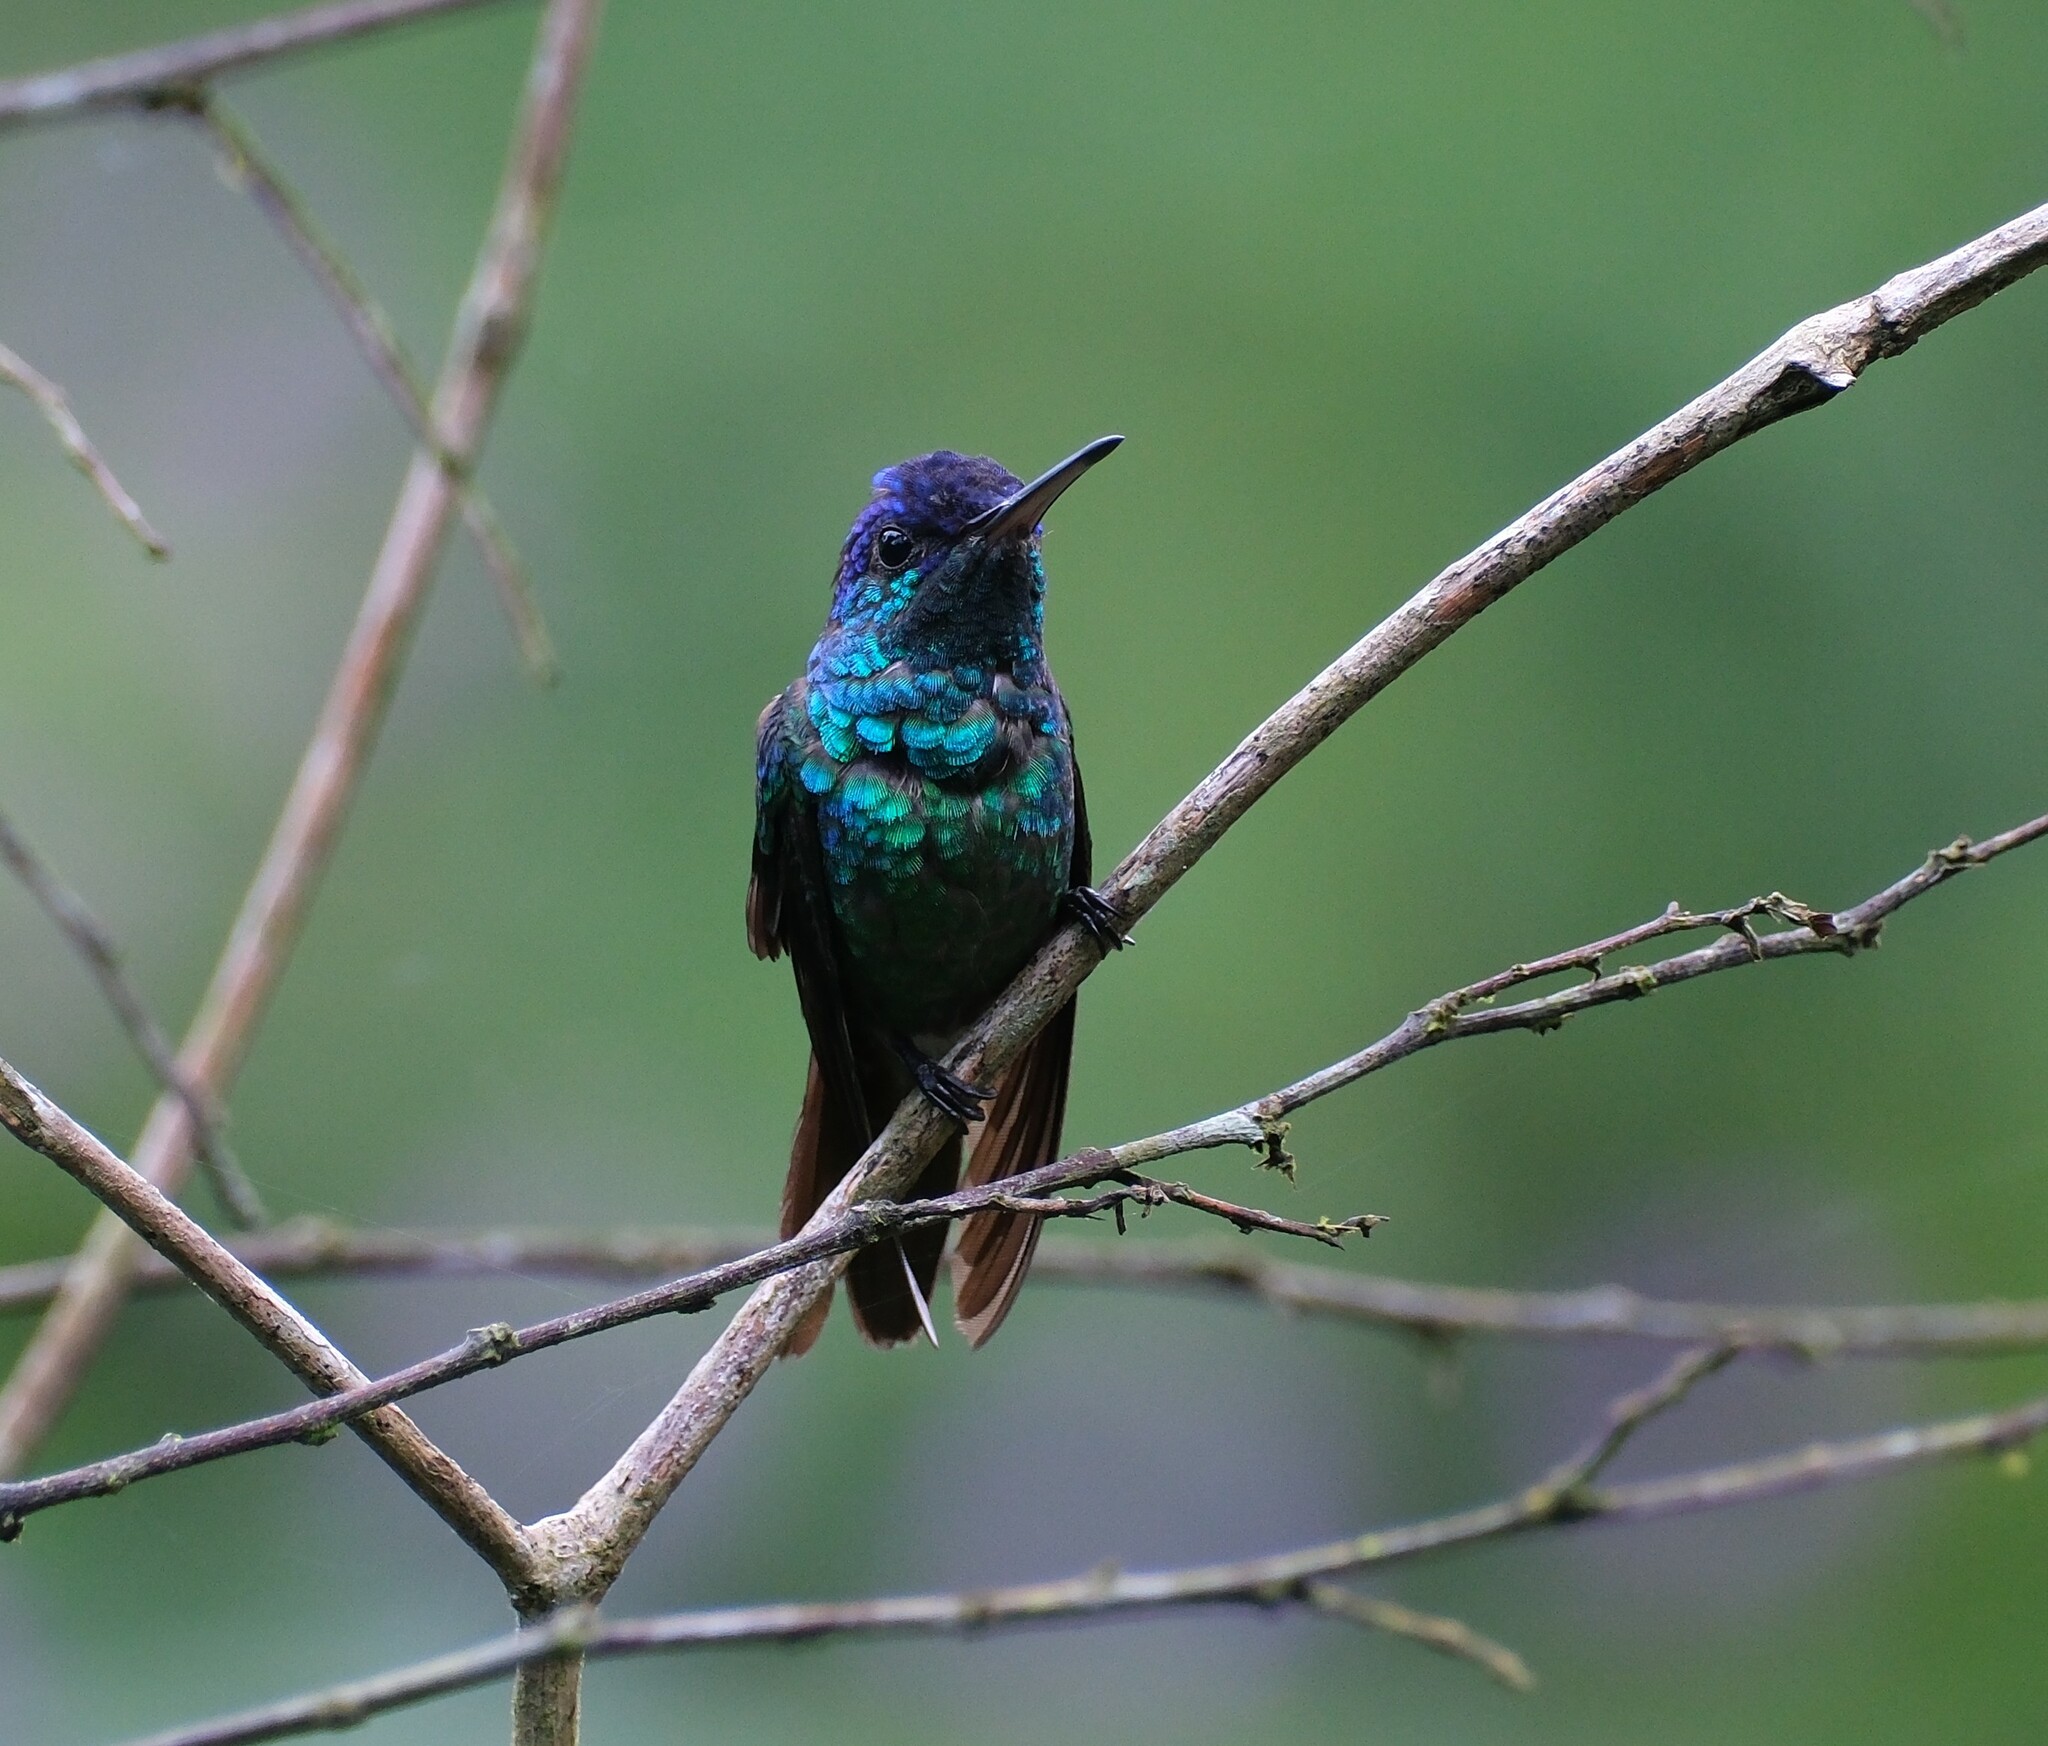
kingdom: Animalia
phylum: Chordata
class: Aves
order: Apodiformes
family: Trochilidae
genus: Chrysuronia
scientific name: Chrysuronia oenone
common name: Golden-tailed sapphire
